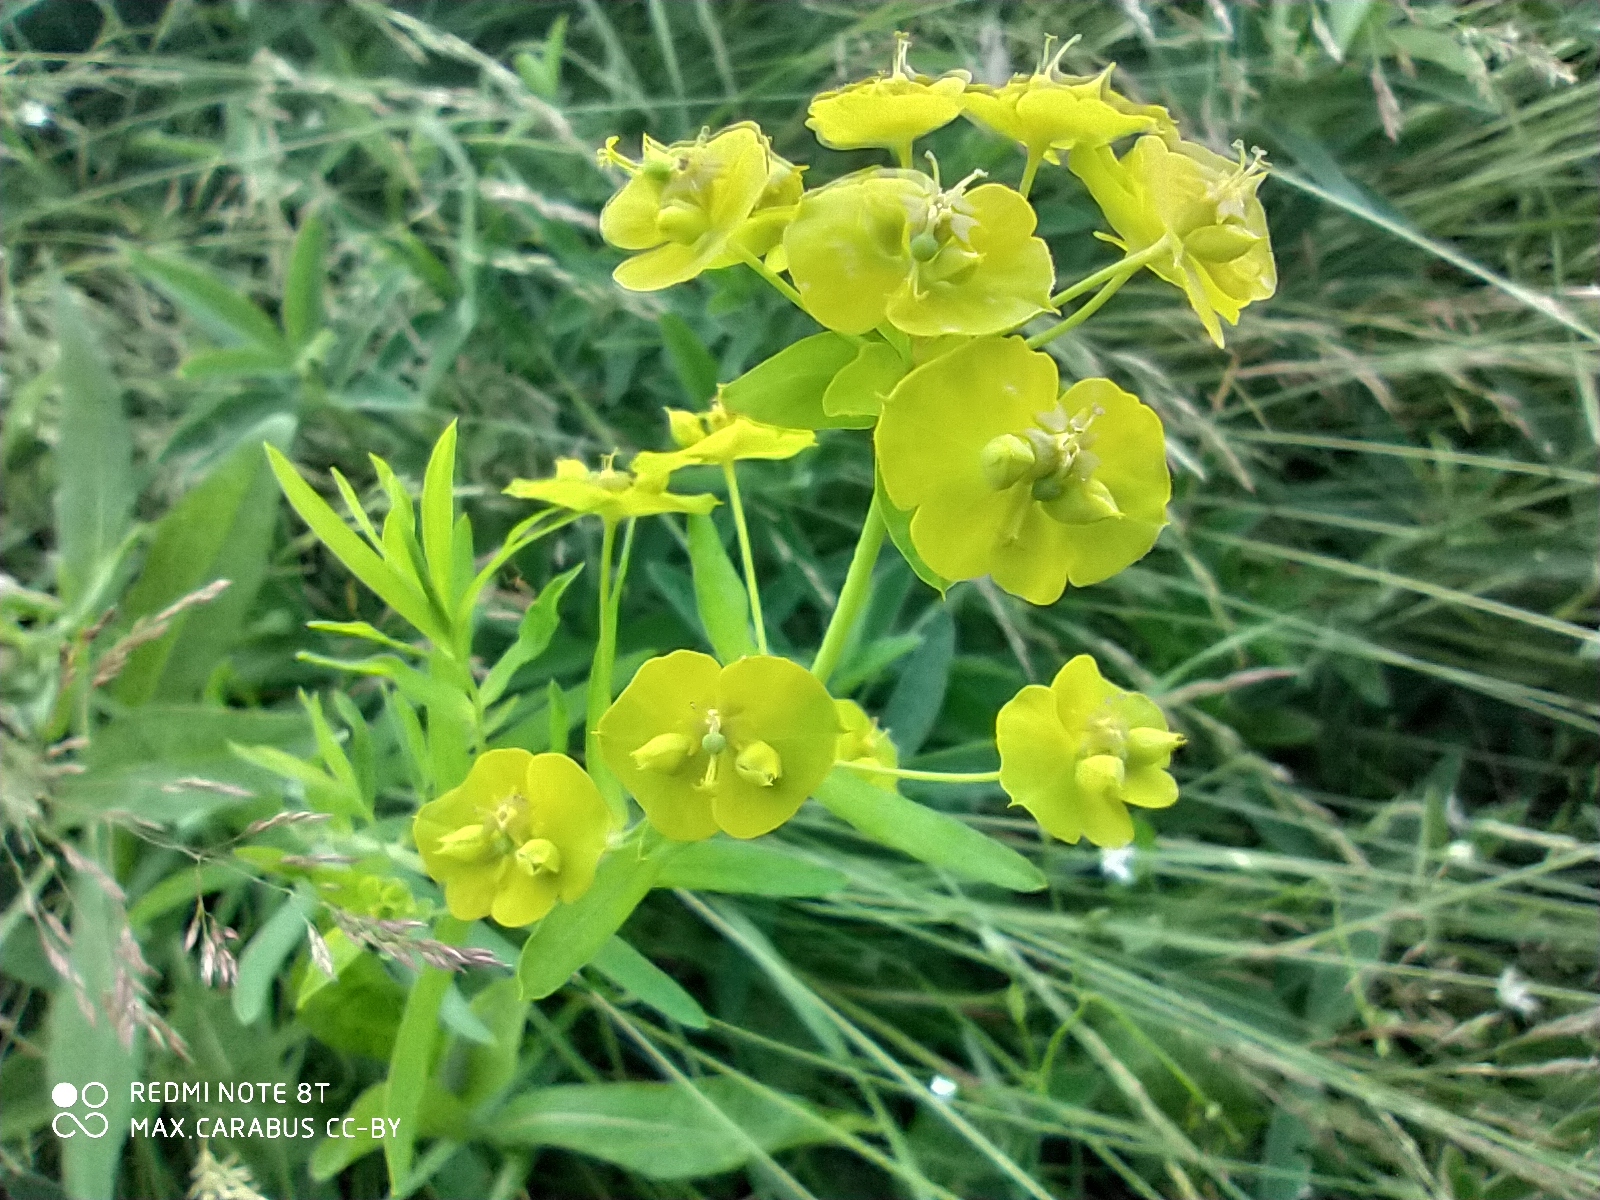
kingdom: Plantae
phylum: Tracheophyta
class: Magnoliopsida
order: Malpighiales
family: Euphorbiaceae
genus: Euphorbia
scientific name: Euphorbia virgata
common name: Leafy spurge
